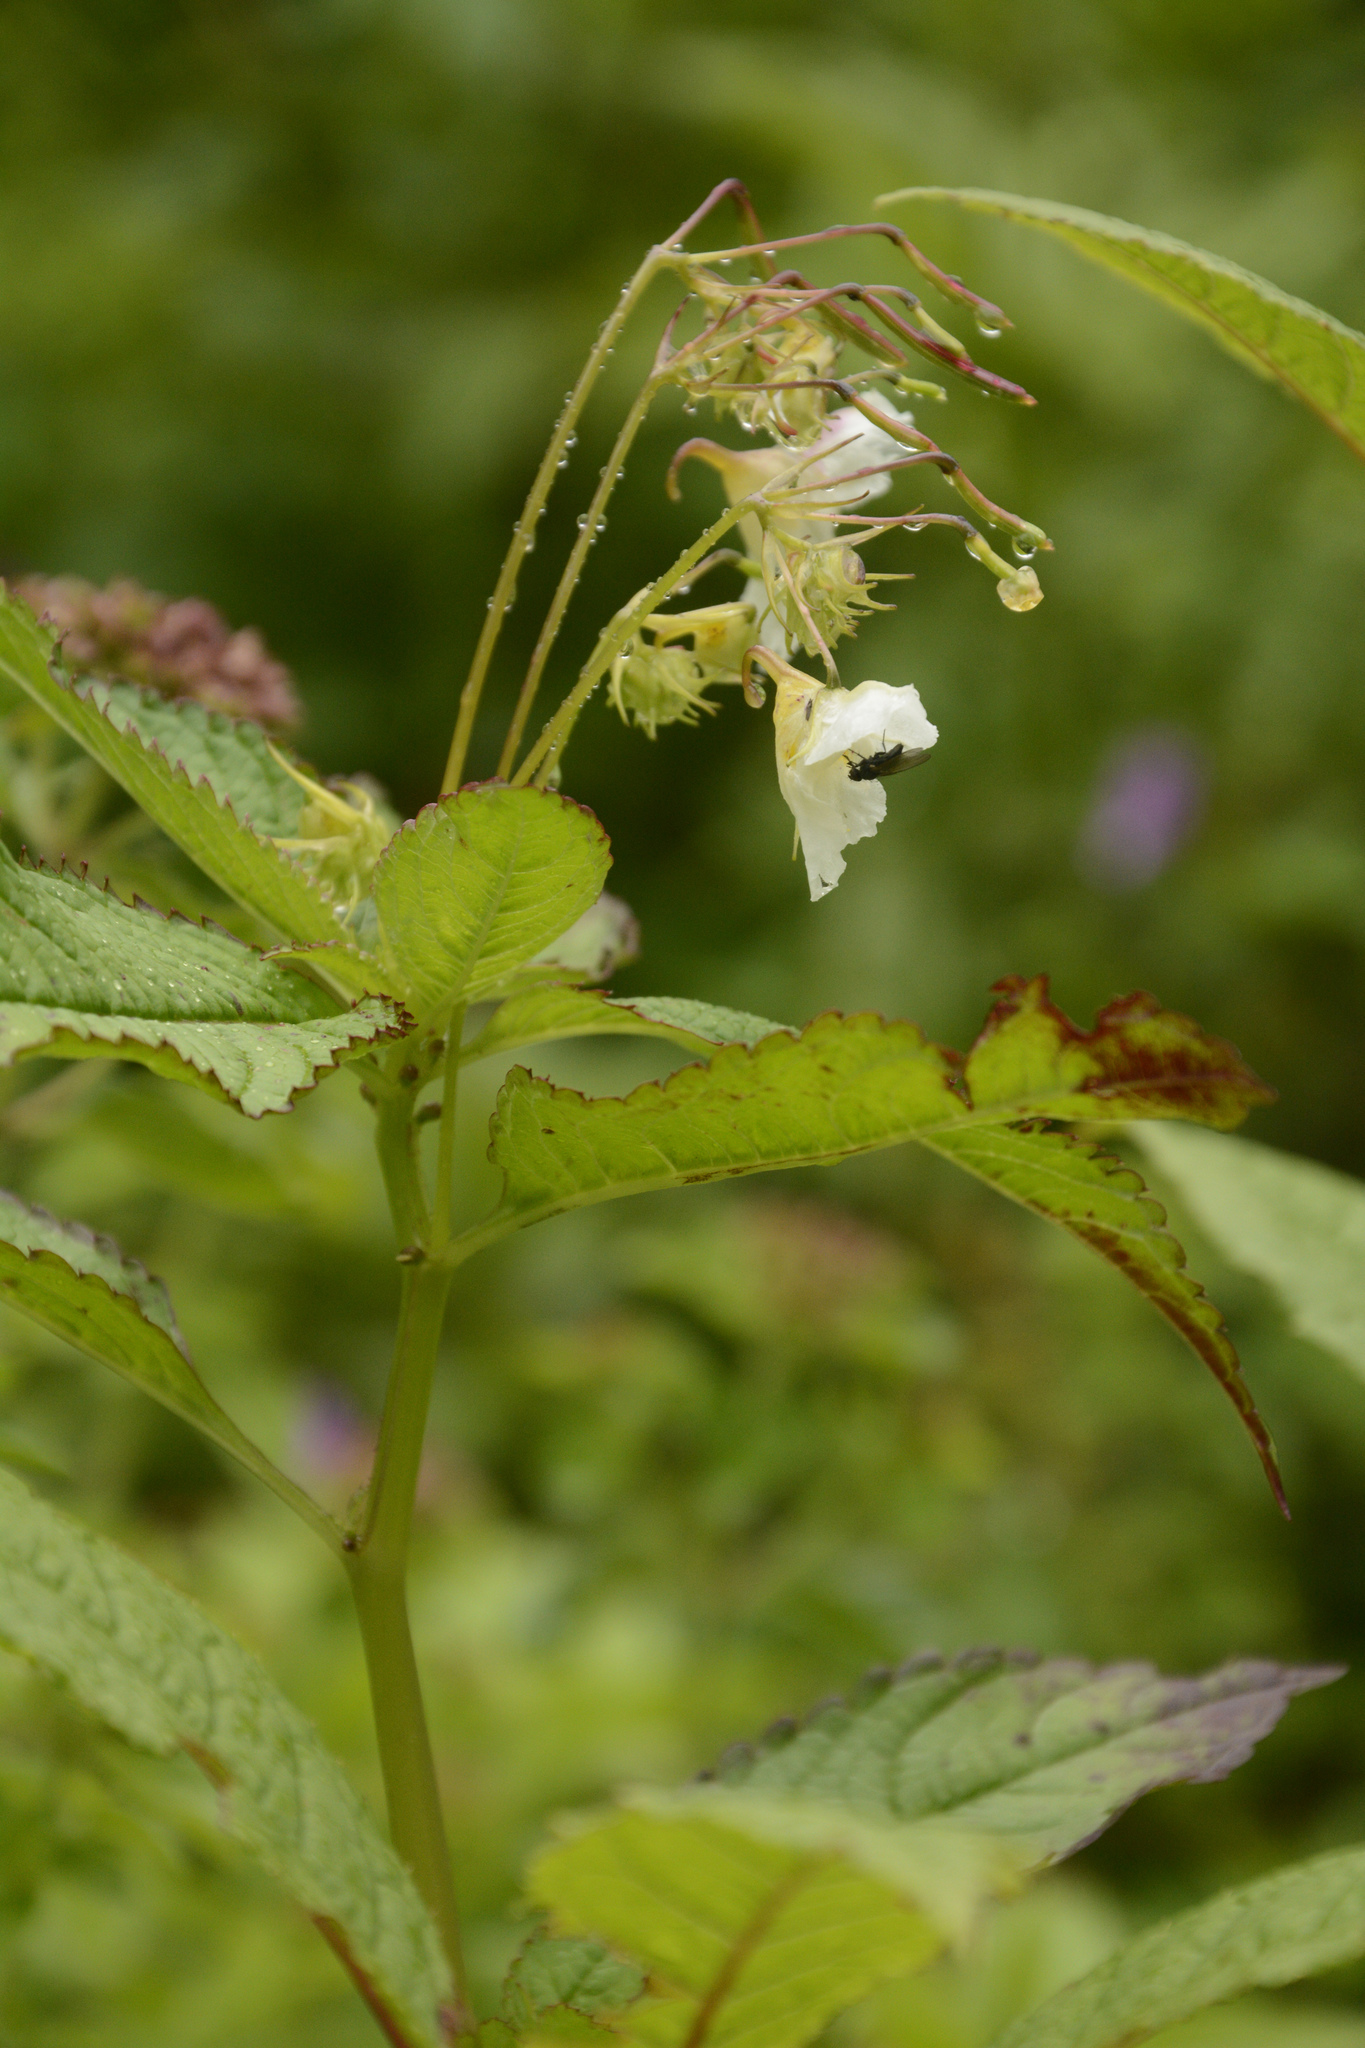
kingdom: Plantae
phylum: Tracheophyta
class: Magnoliopsida
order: Ericales
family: Balsaminaceae
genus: Impatiens
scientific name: Impatiens meeboldii
